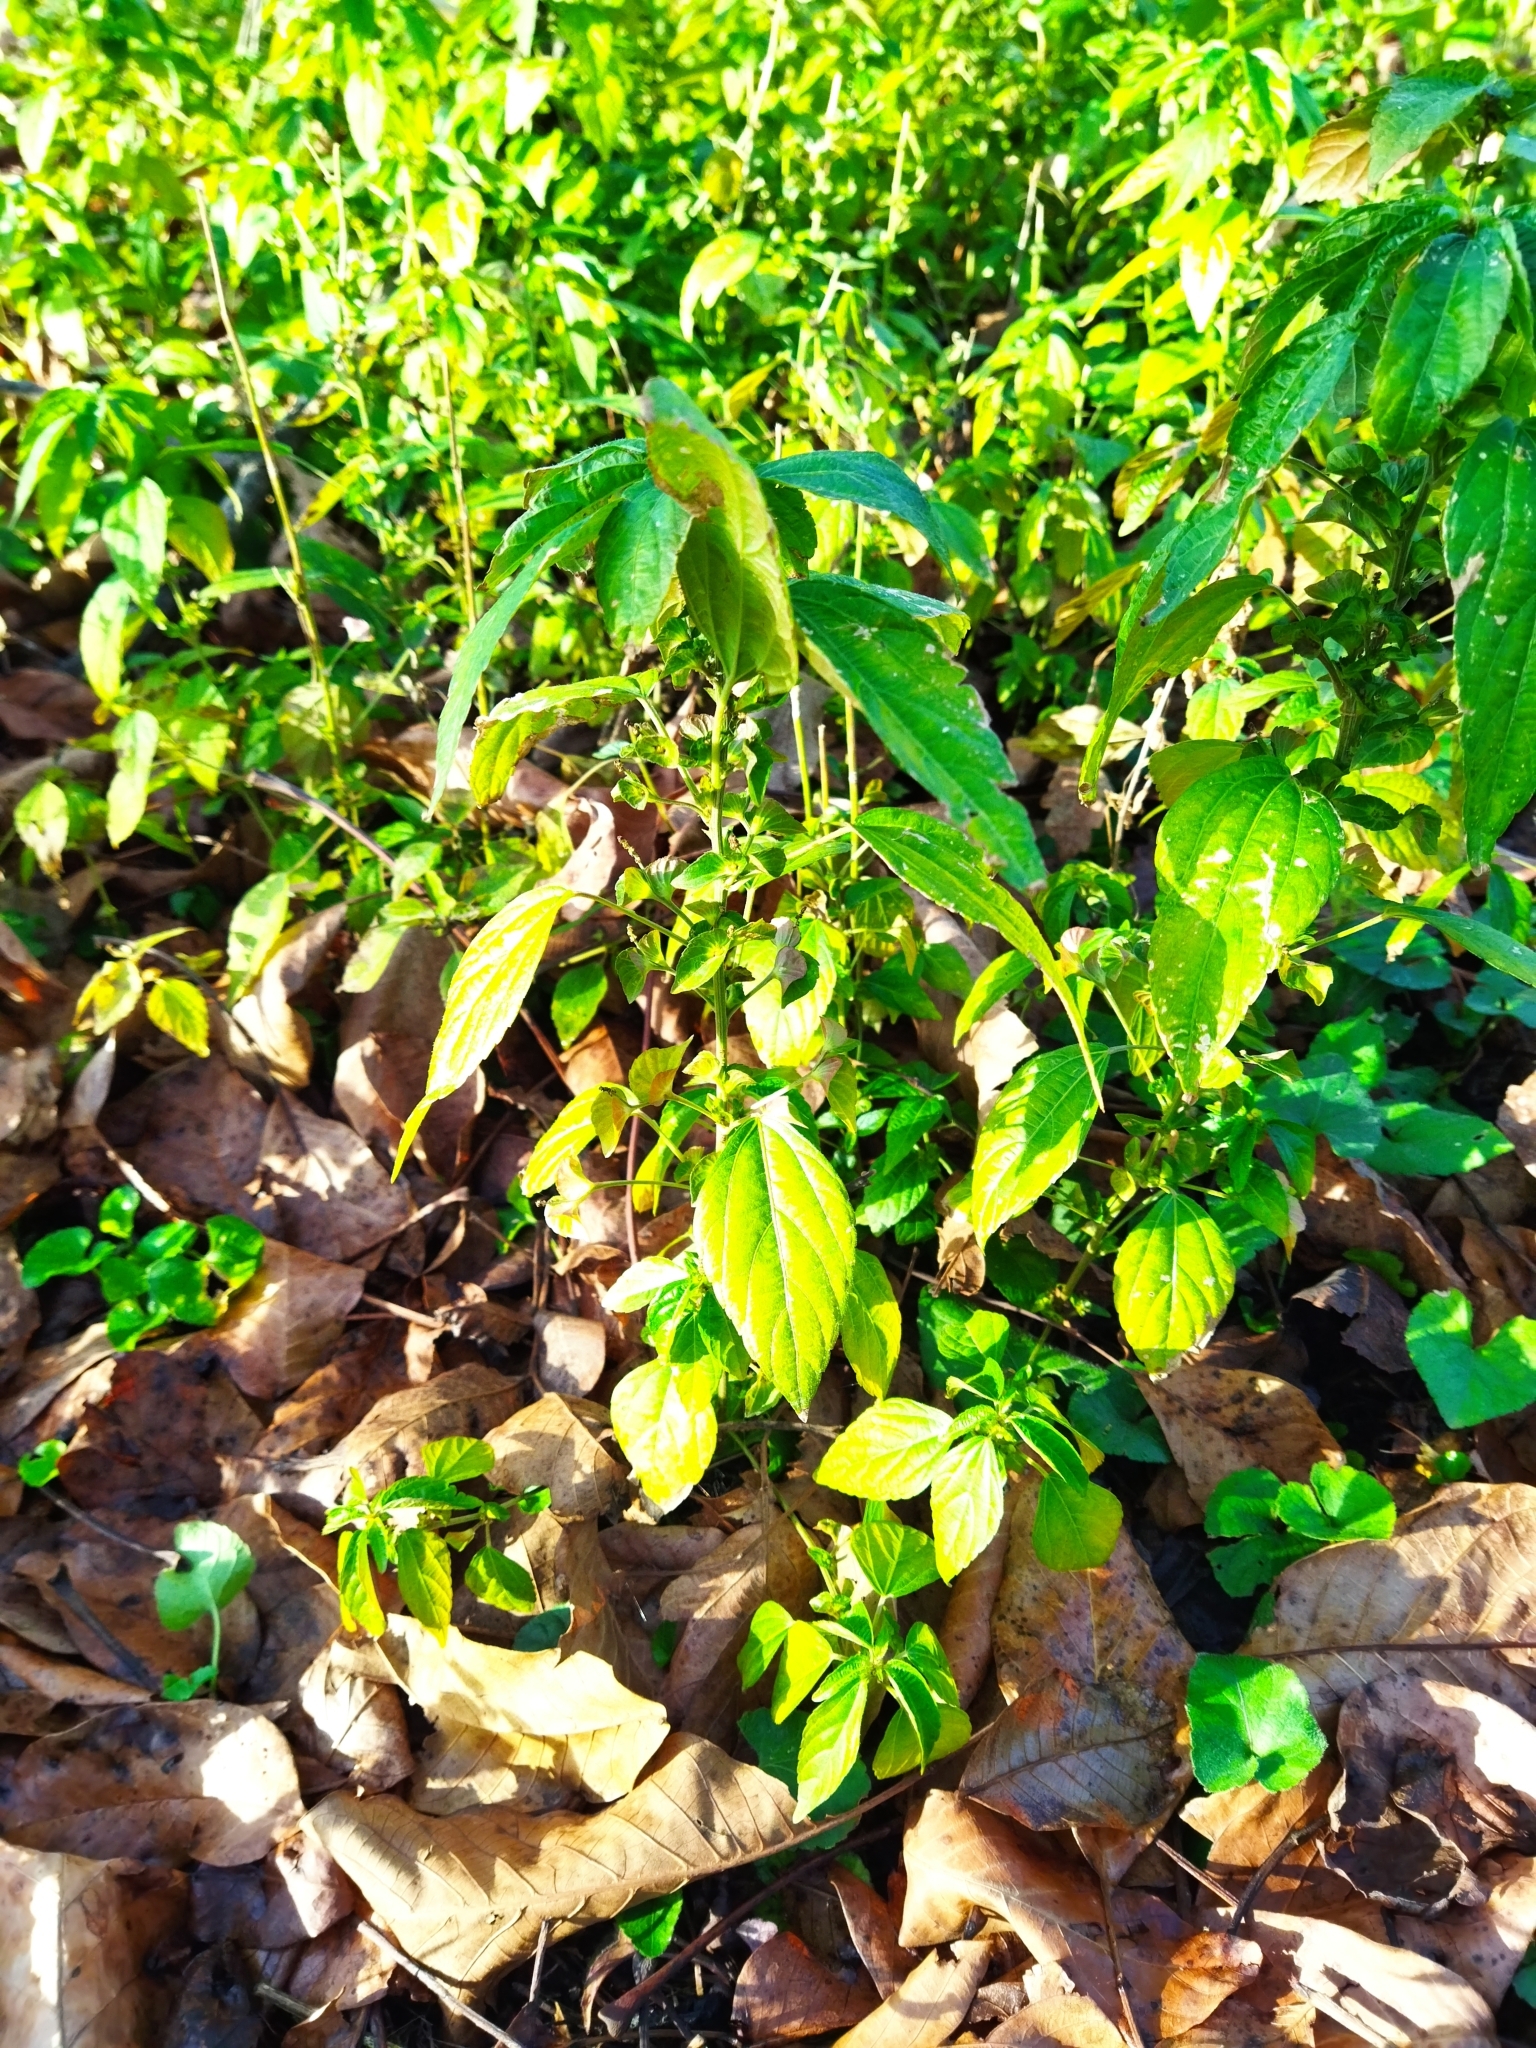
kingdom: Plantae
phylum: Tracheophyta
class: Magnoliopsida
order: Malpighiales
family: Euphorbiaceae
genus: Acalypha
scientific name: Acalypha australis
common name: Asian copperleaf
